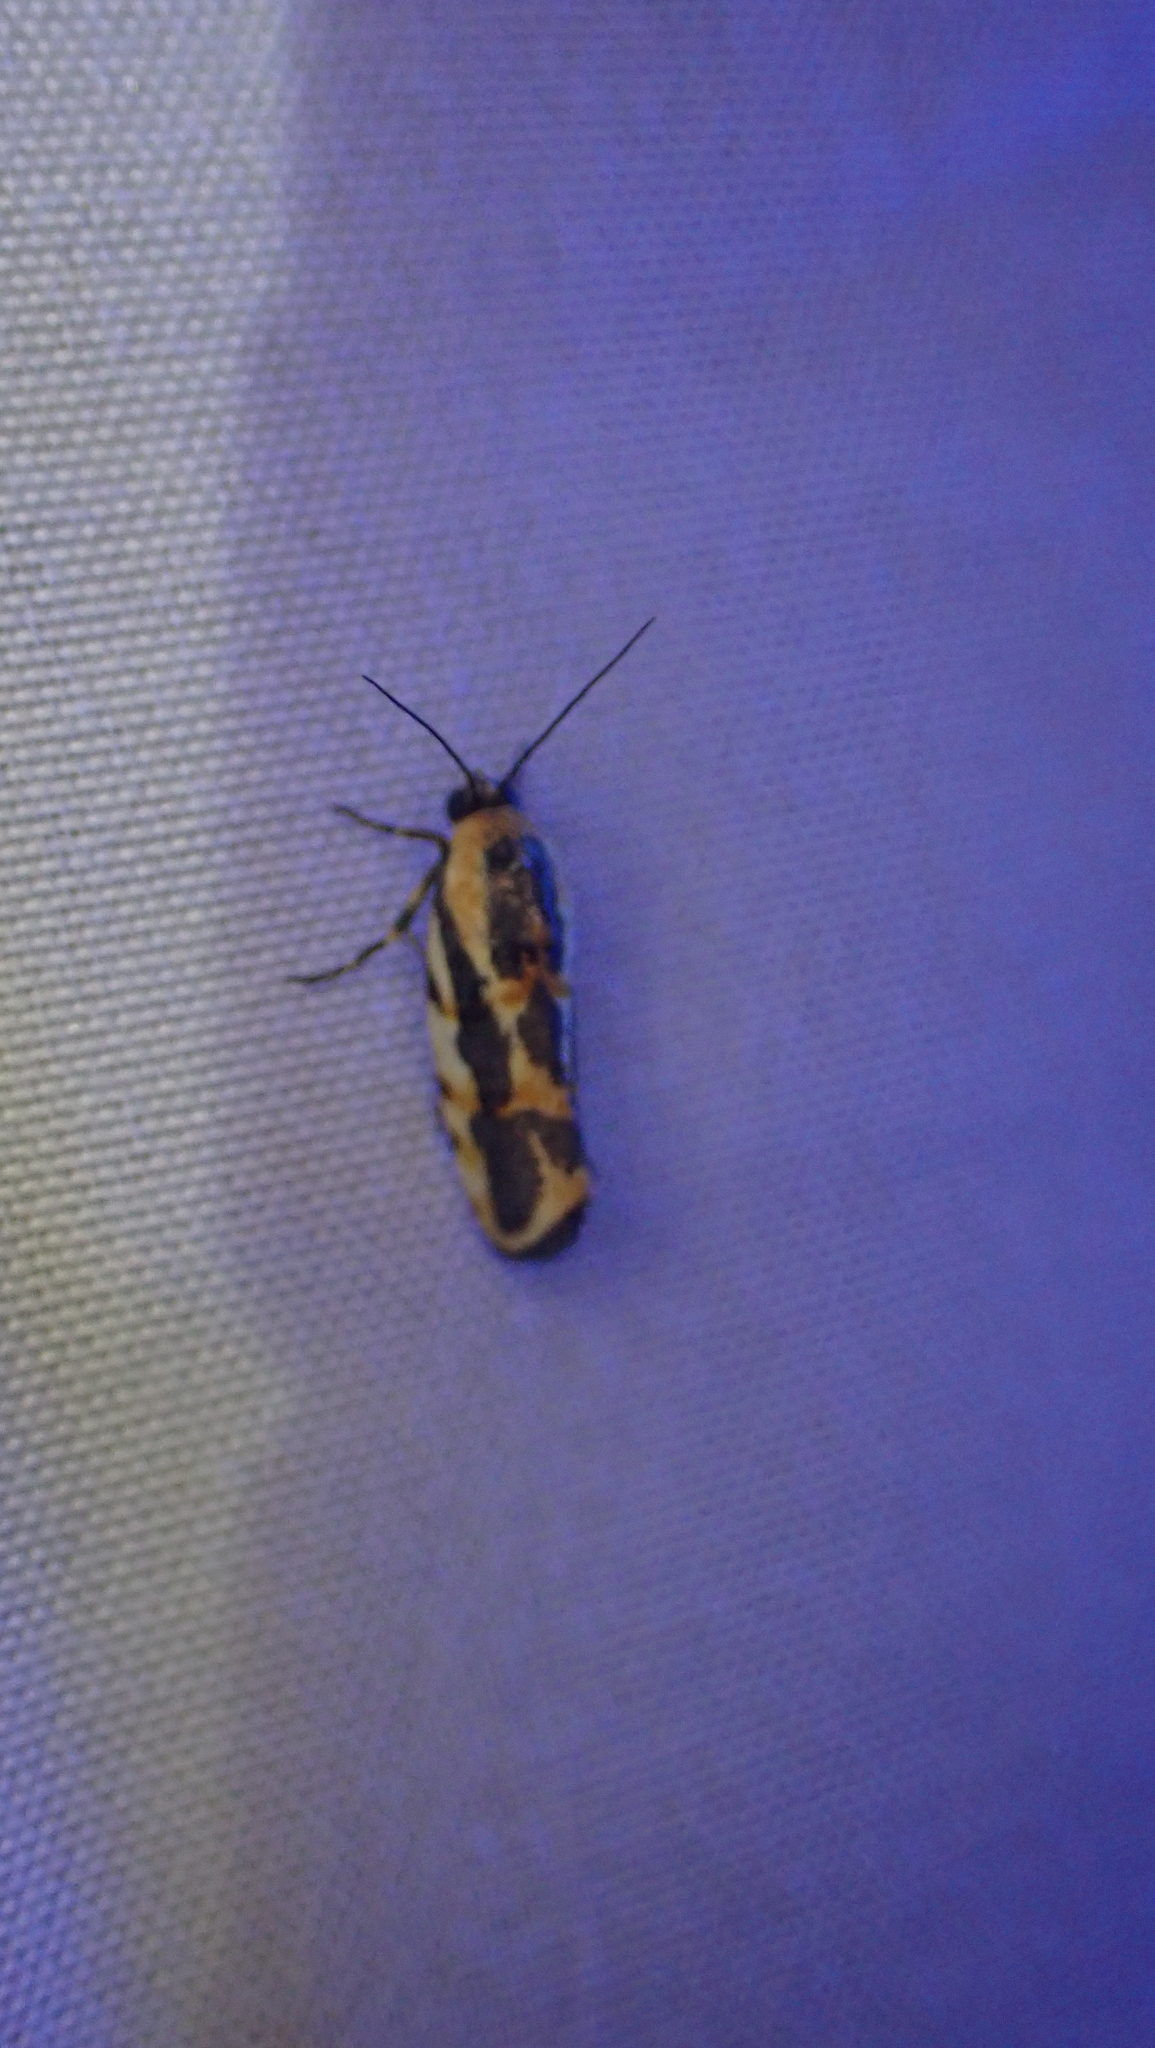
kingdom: Animalia
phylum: Arthropoda
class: Insecta
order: Lepidoptera
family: Noctuidae
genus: Acontia
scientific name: Acontia leo
